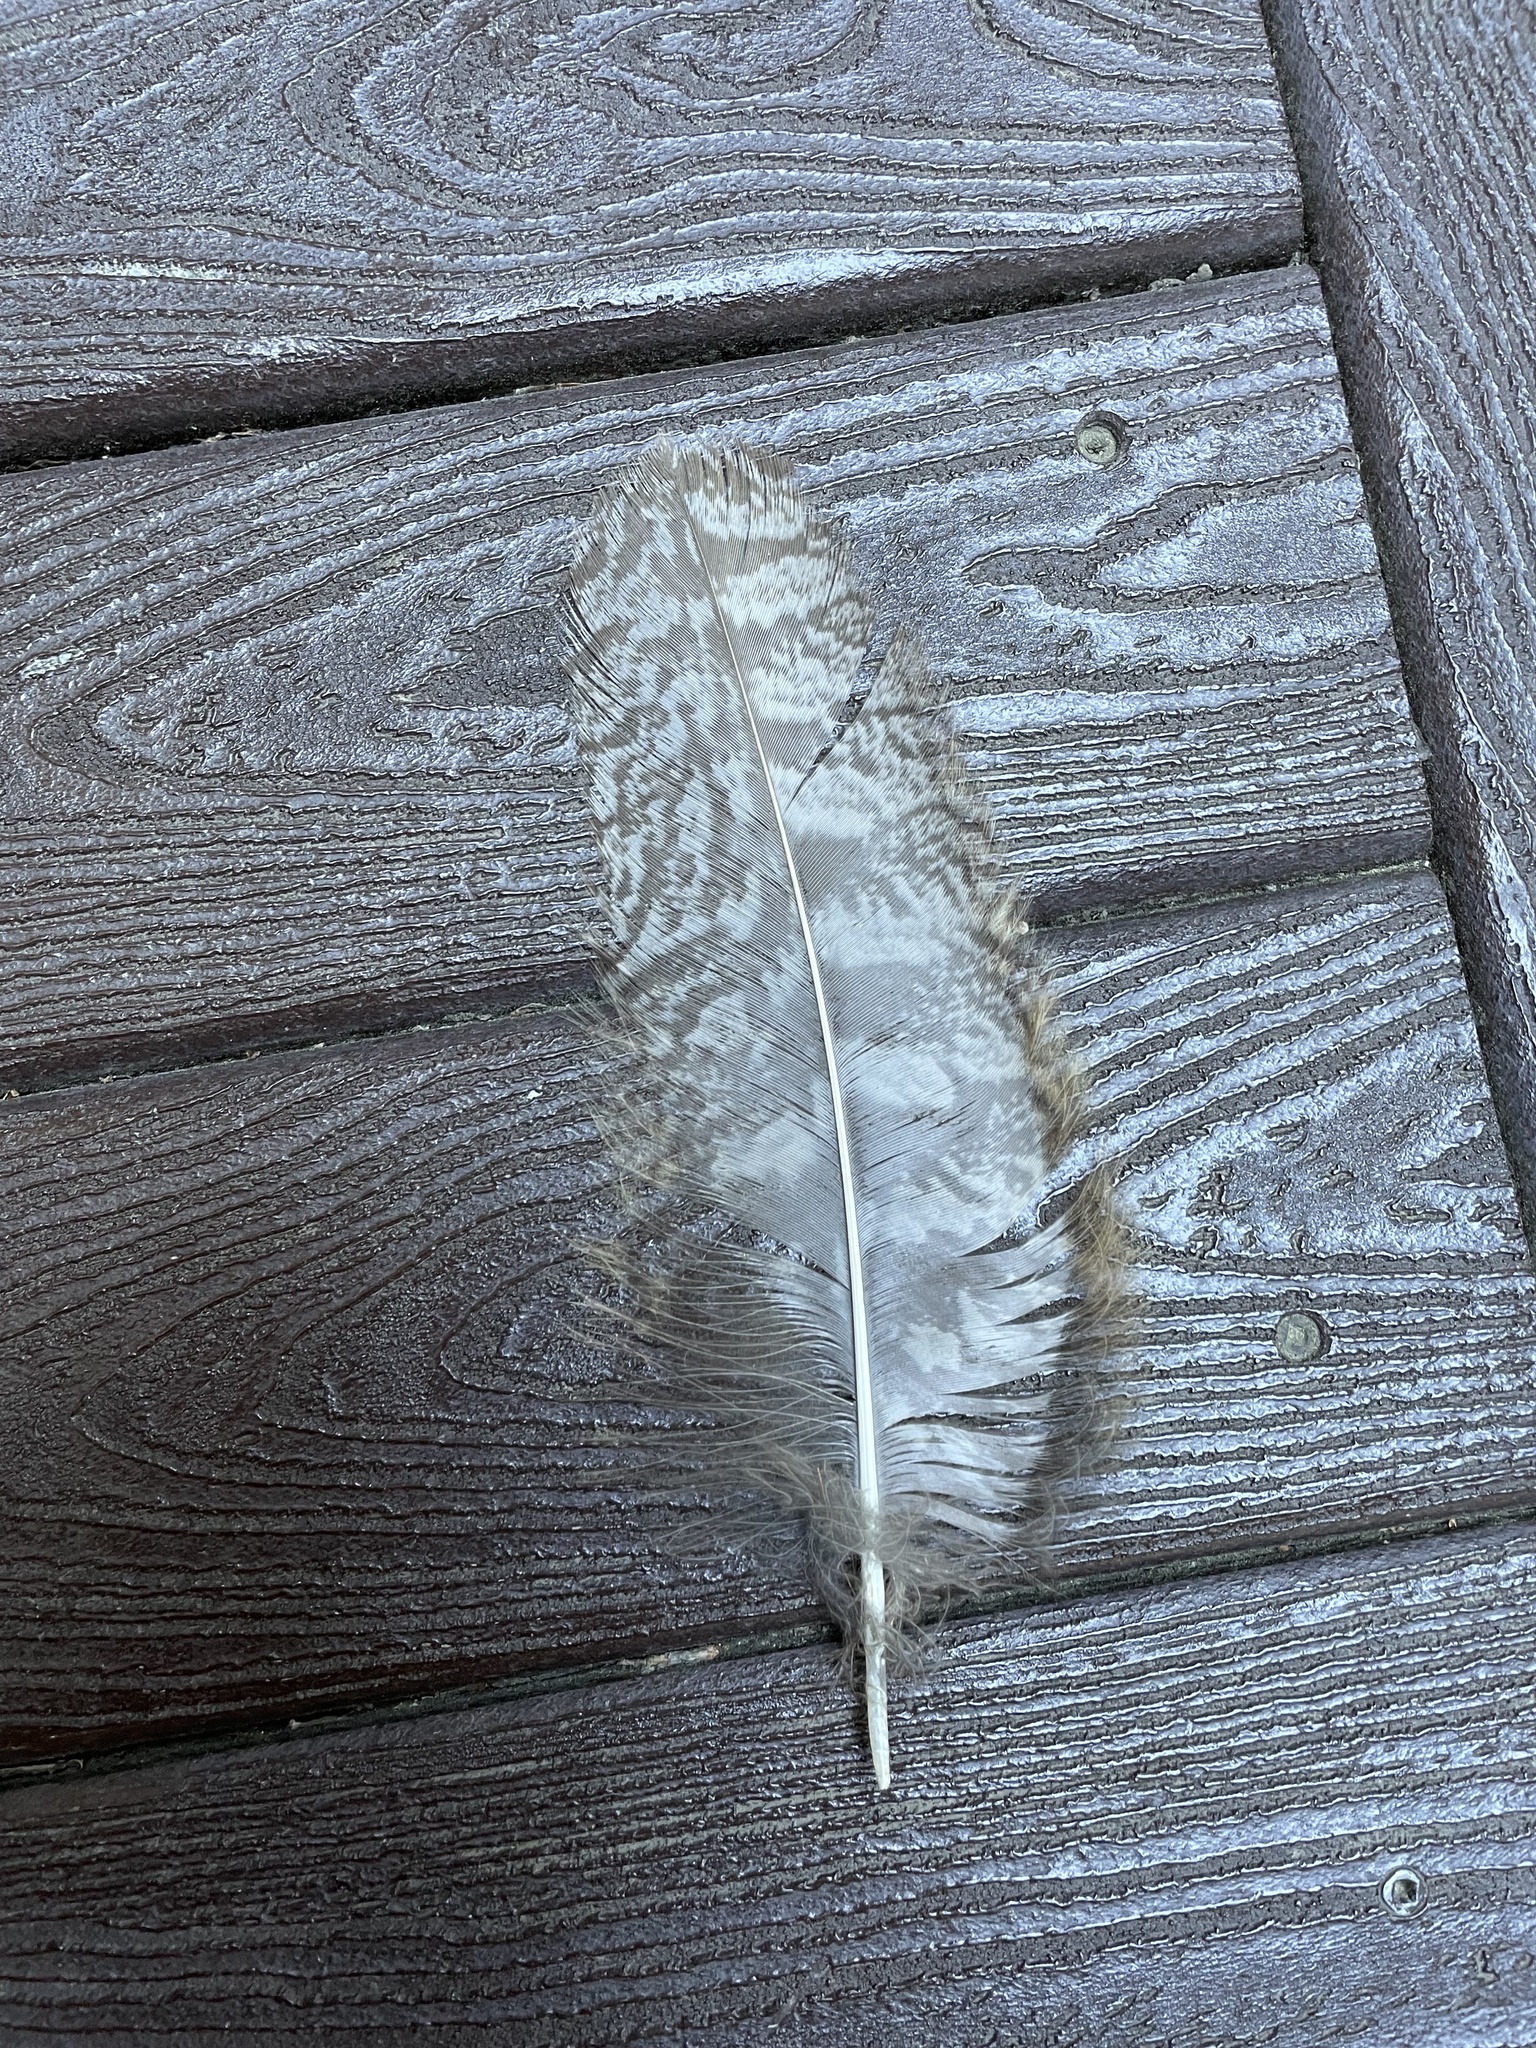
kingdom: Animalia
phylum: Chordata
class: Aves
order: Strigiformes
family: Strigidae
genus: Bubo
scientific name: Bubo virginianus
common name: Great horned owl
